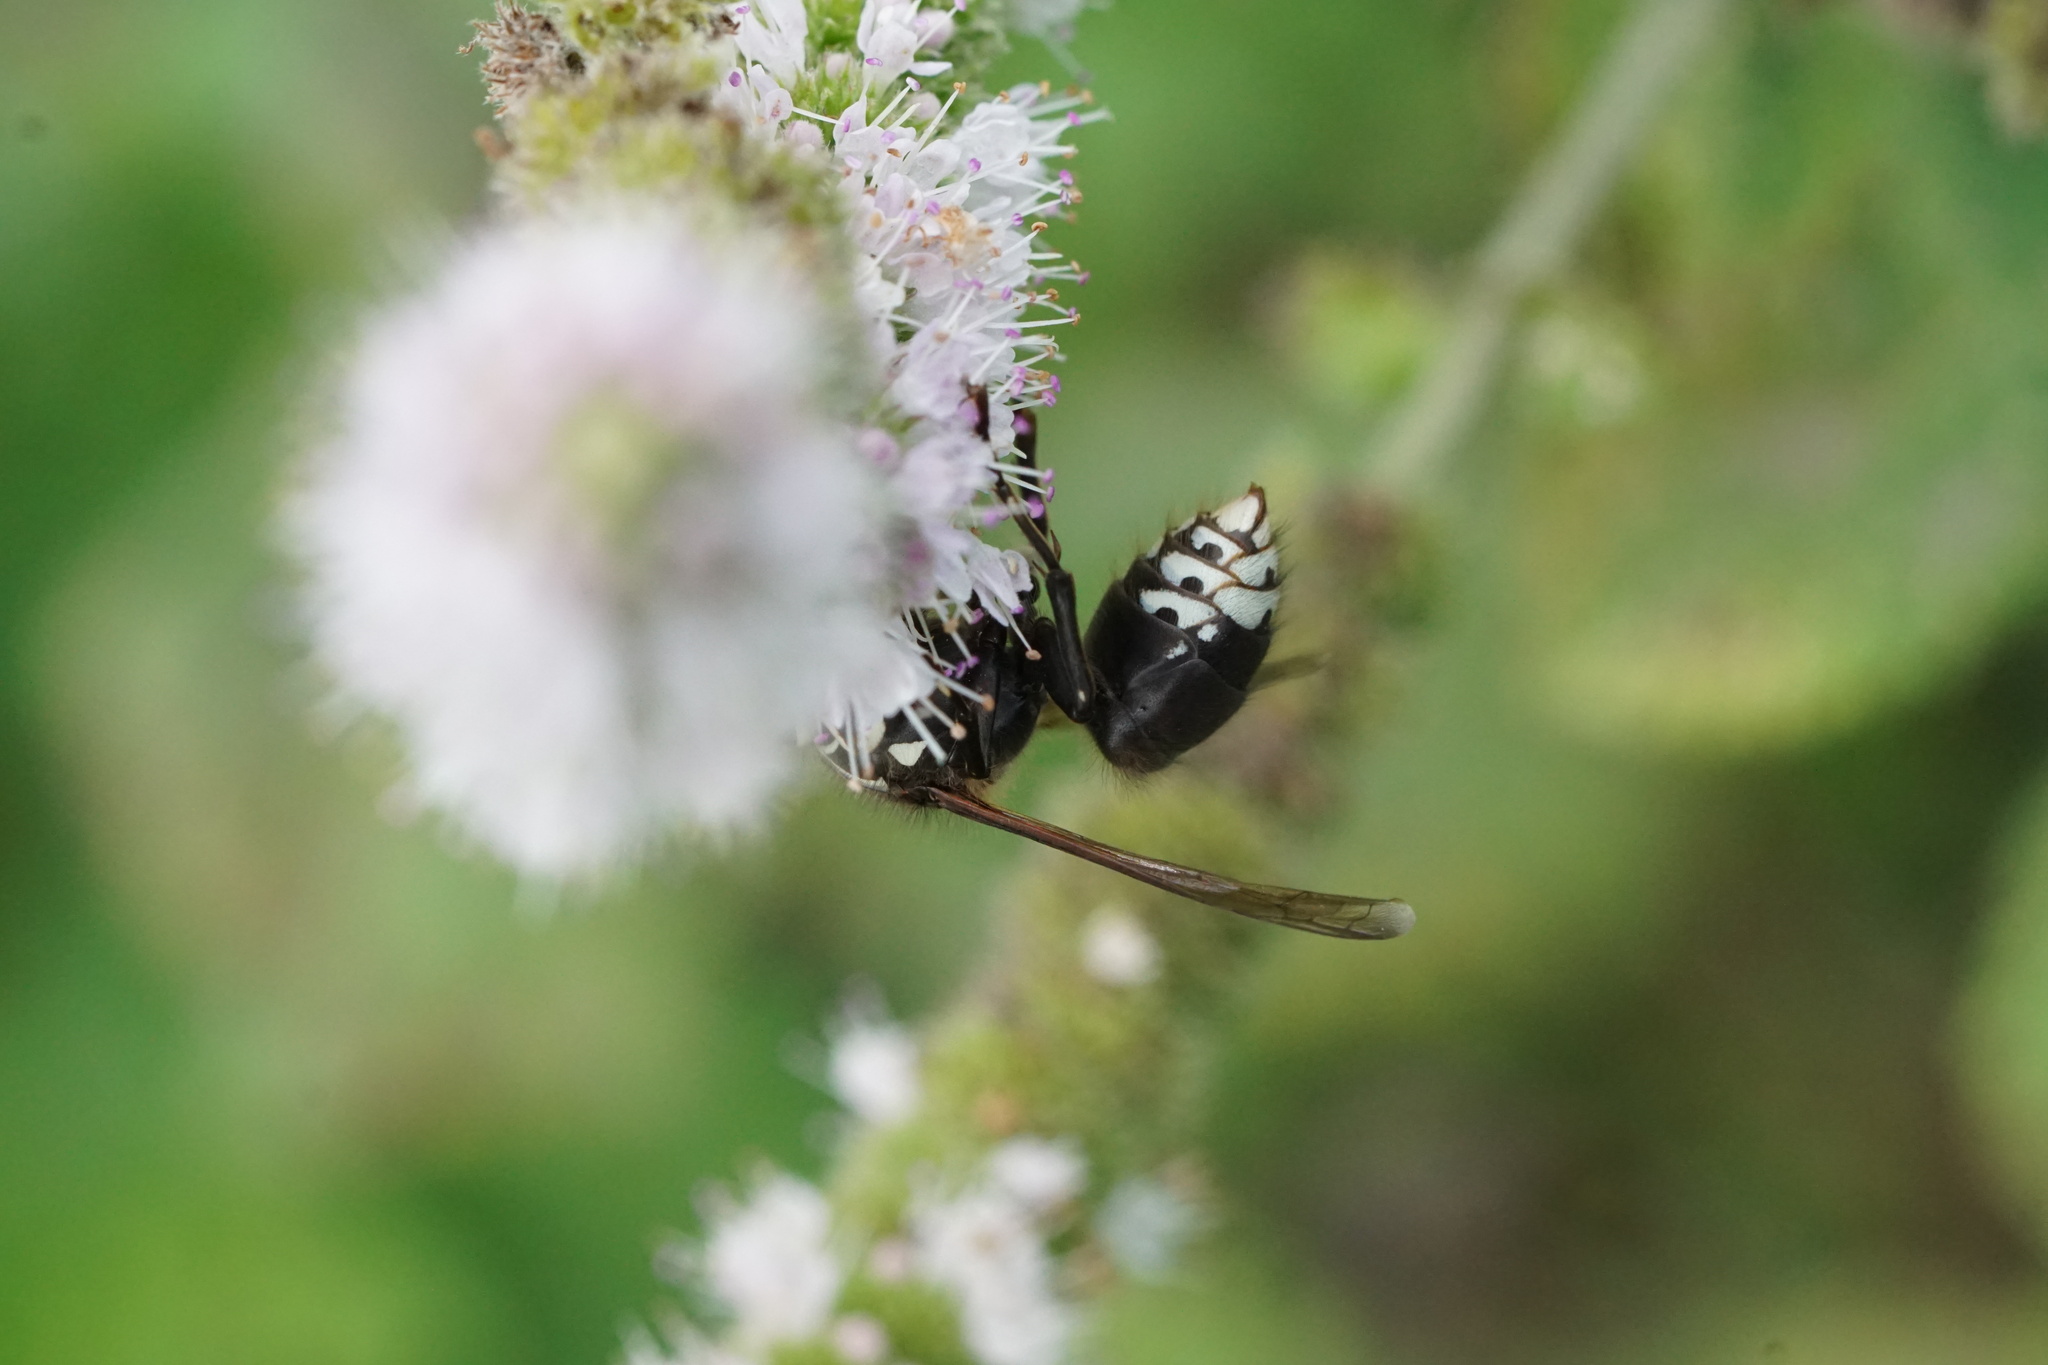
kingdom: Animalia
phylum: Arthropoda
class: Insecta
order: Hymenoptera
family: Vespidae
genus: Dolichovespula
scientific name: Dolichovespula maculata
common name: Bald-faced hornet
